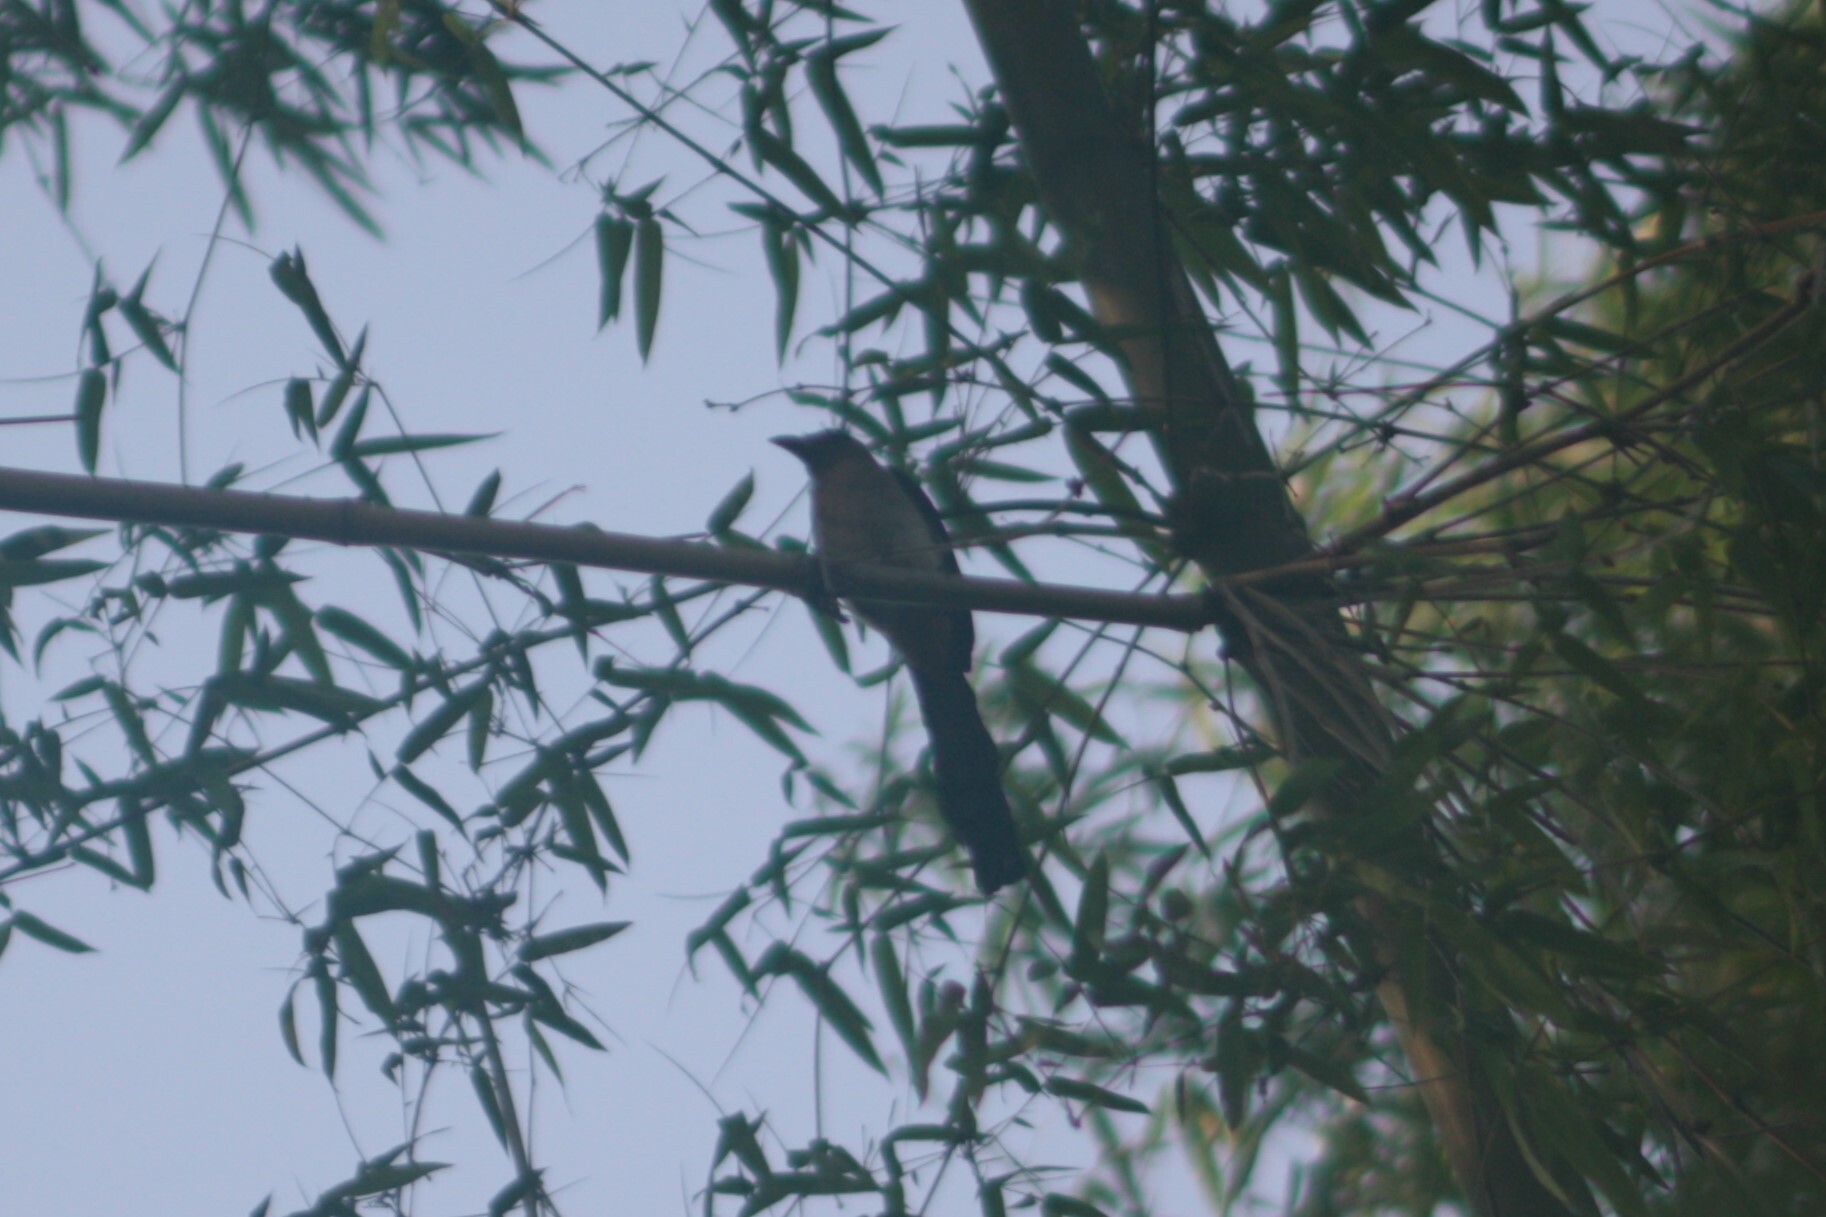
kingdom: Animalia
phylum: Chordata
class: Aves
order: Passeriformes
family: Corvidae
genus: Dendrocitta
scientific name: Dendrocitta formosae
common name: Grey treepie
